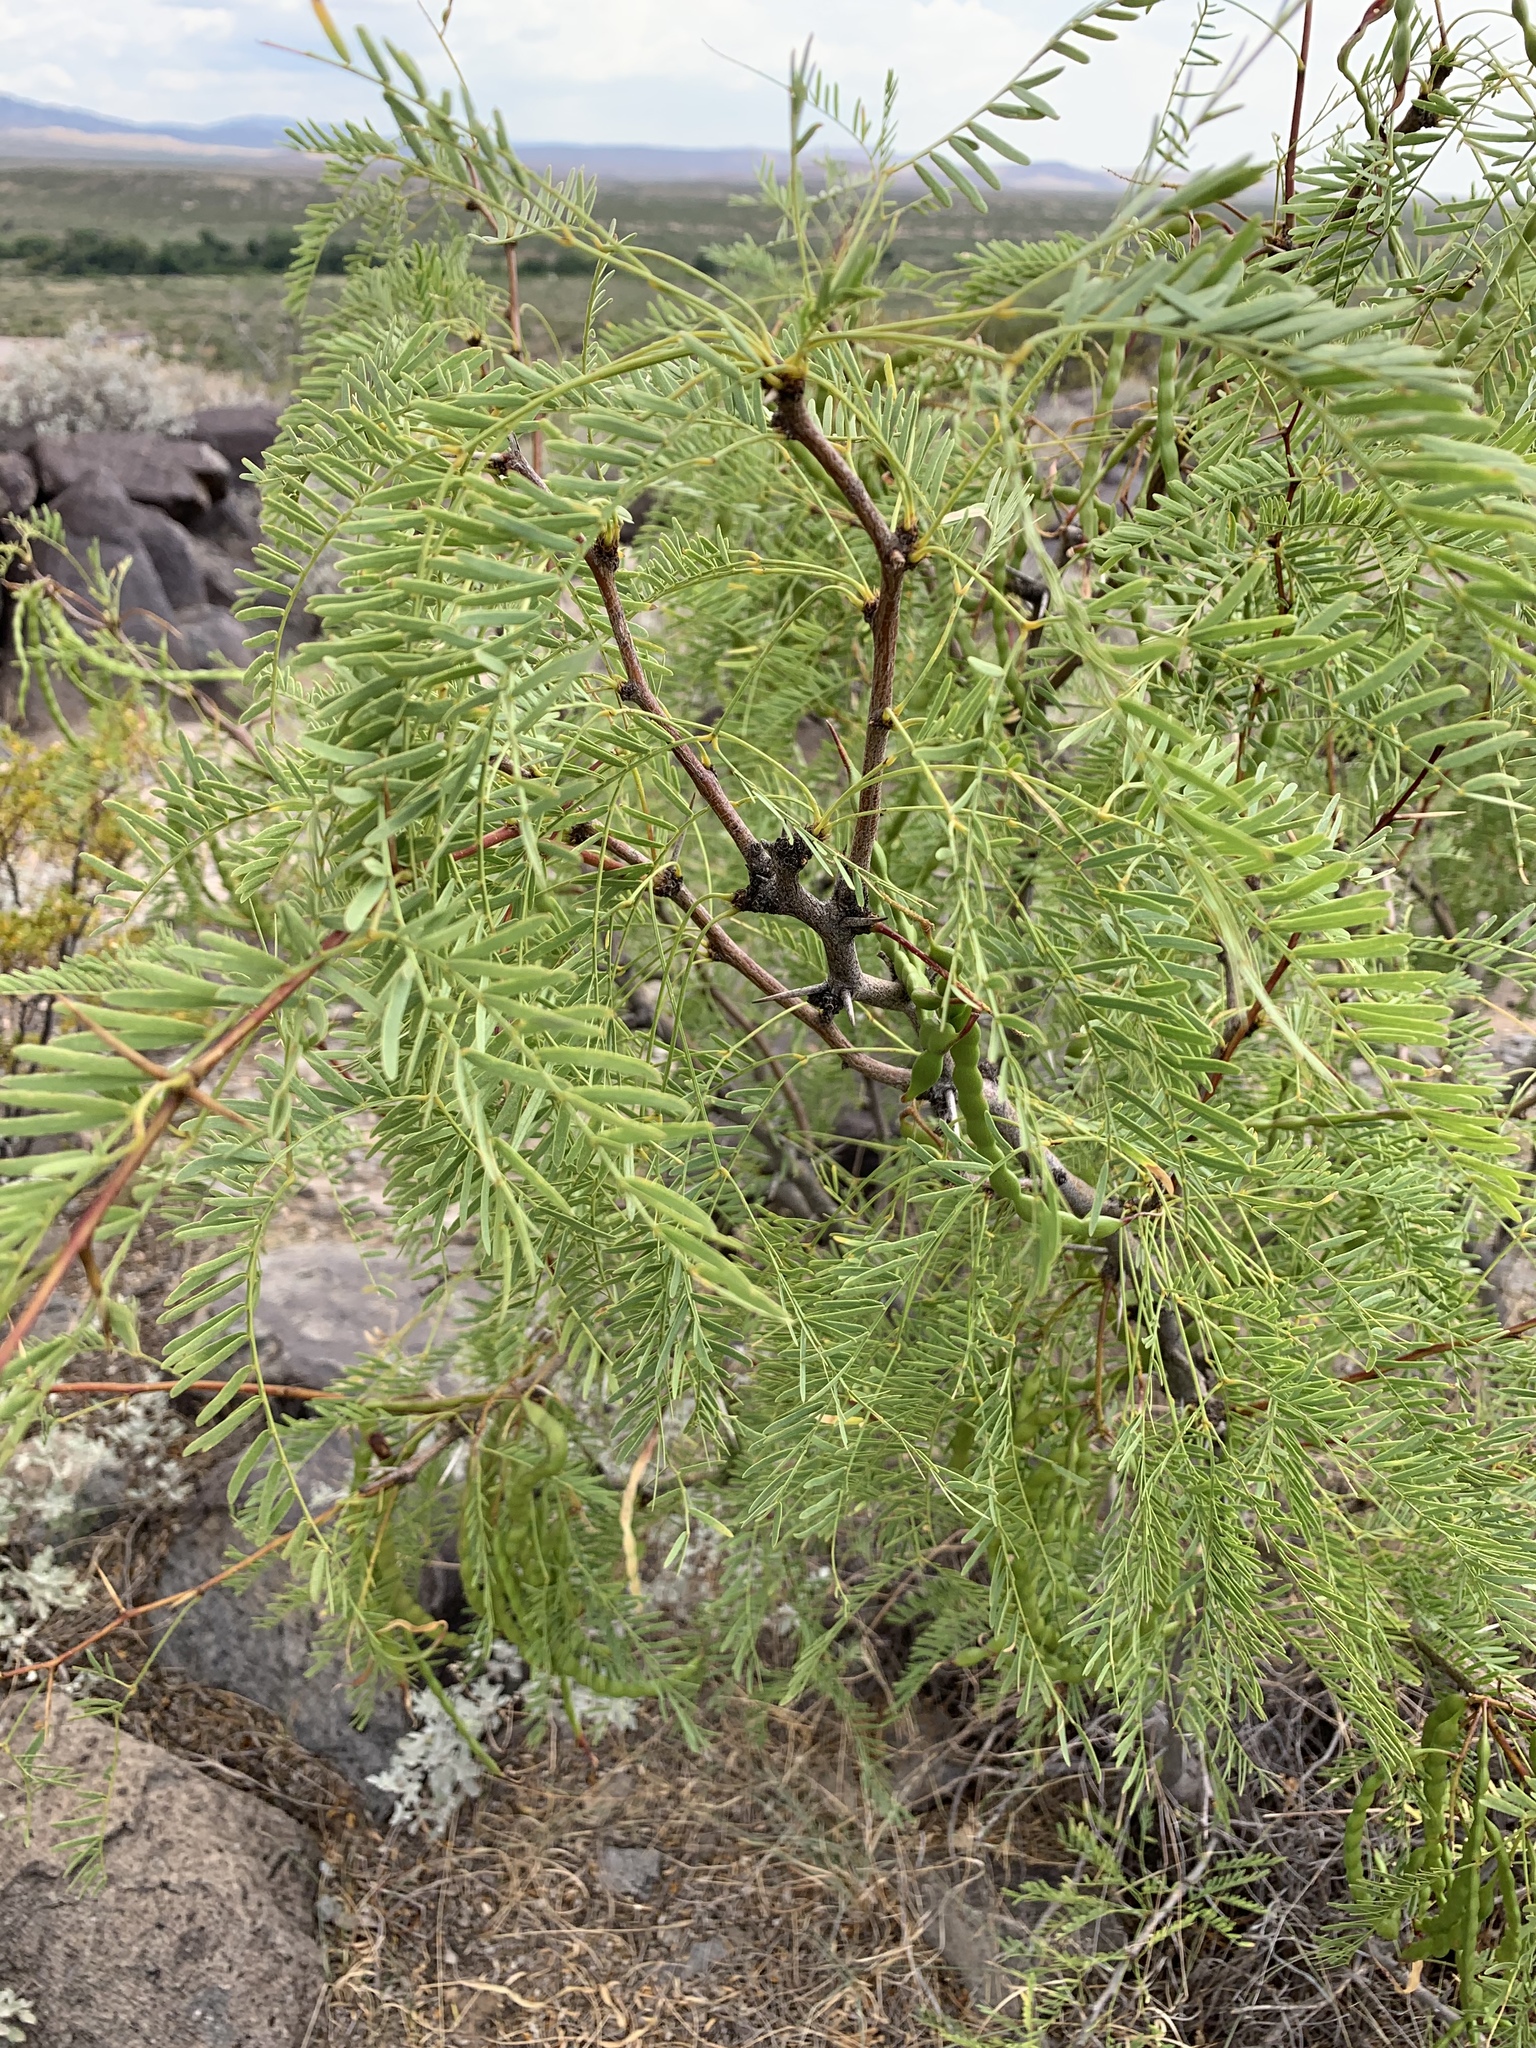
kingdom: Plantae
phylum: Tracheophyta
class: Magnoliopsida
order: Fabales
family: Fabaceae
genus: Prosopis
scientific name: Prosopis glandulosa
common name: Honey mesquite
